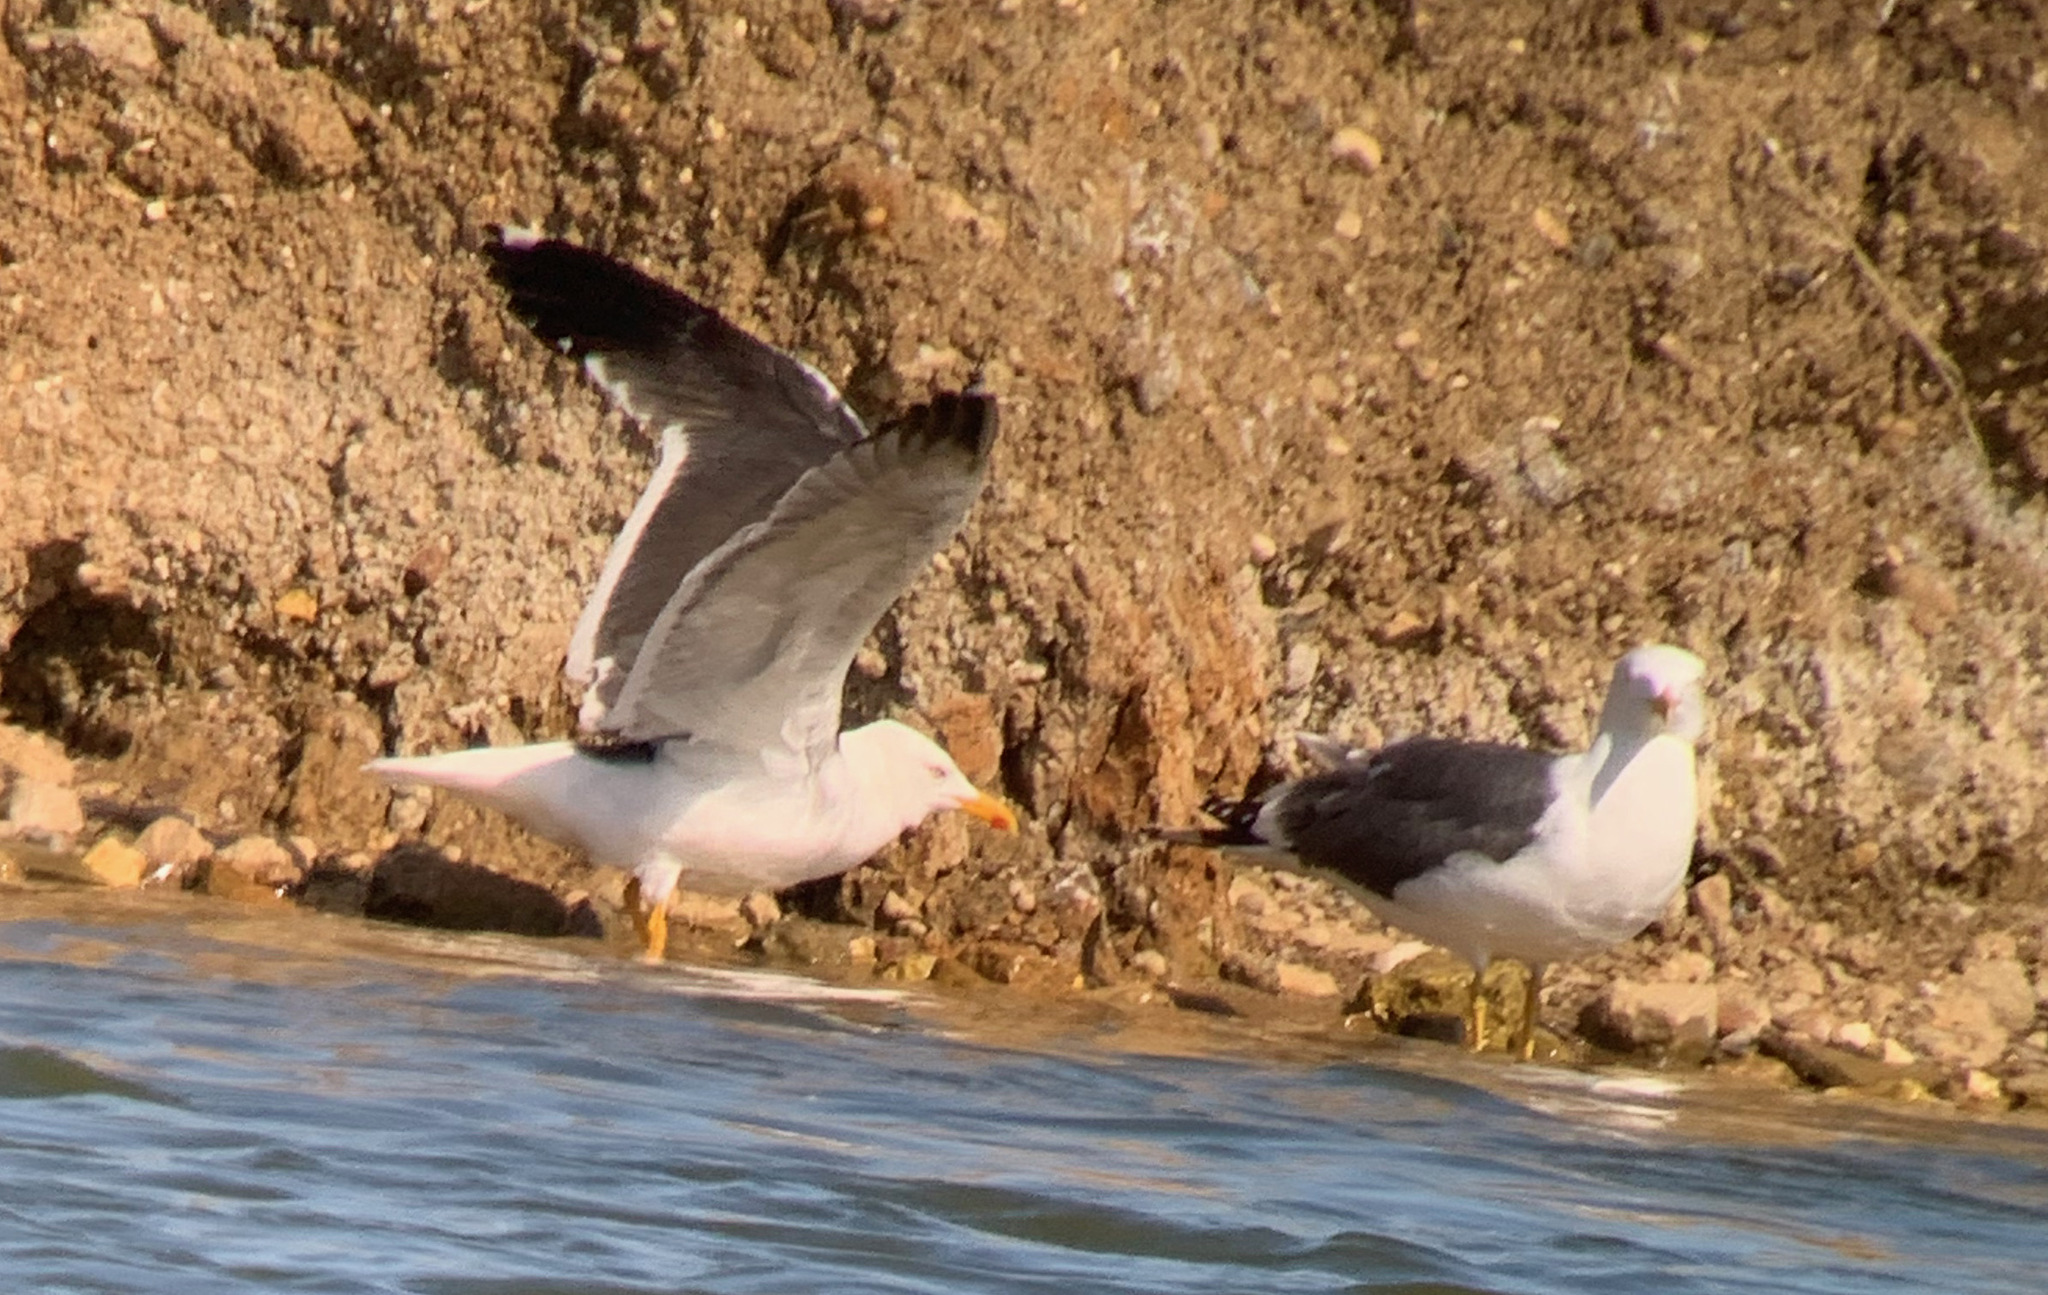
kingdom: Animalia
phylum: Chordata
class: Aves
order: Charadriiformes
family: Laridae
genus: Larus
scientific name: Larus fuscus
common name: Lesser black-backed gull
